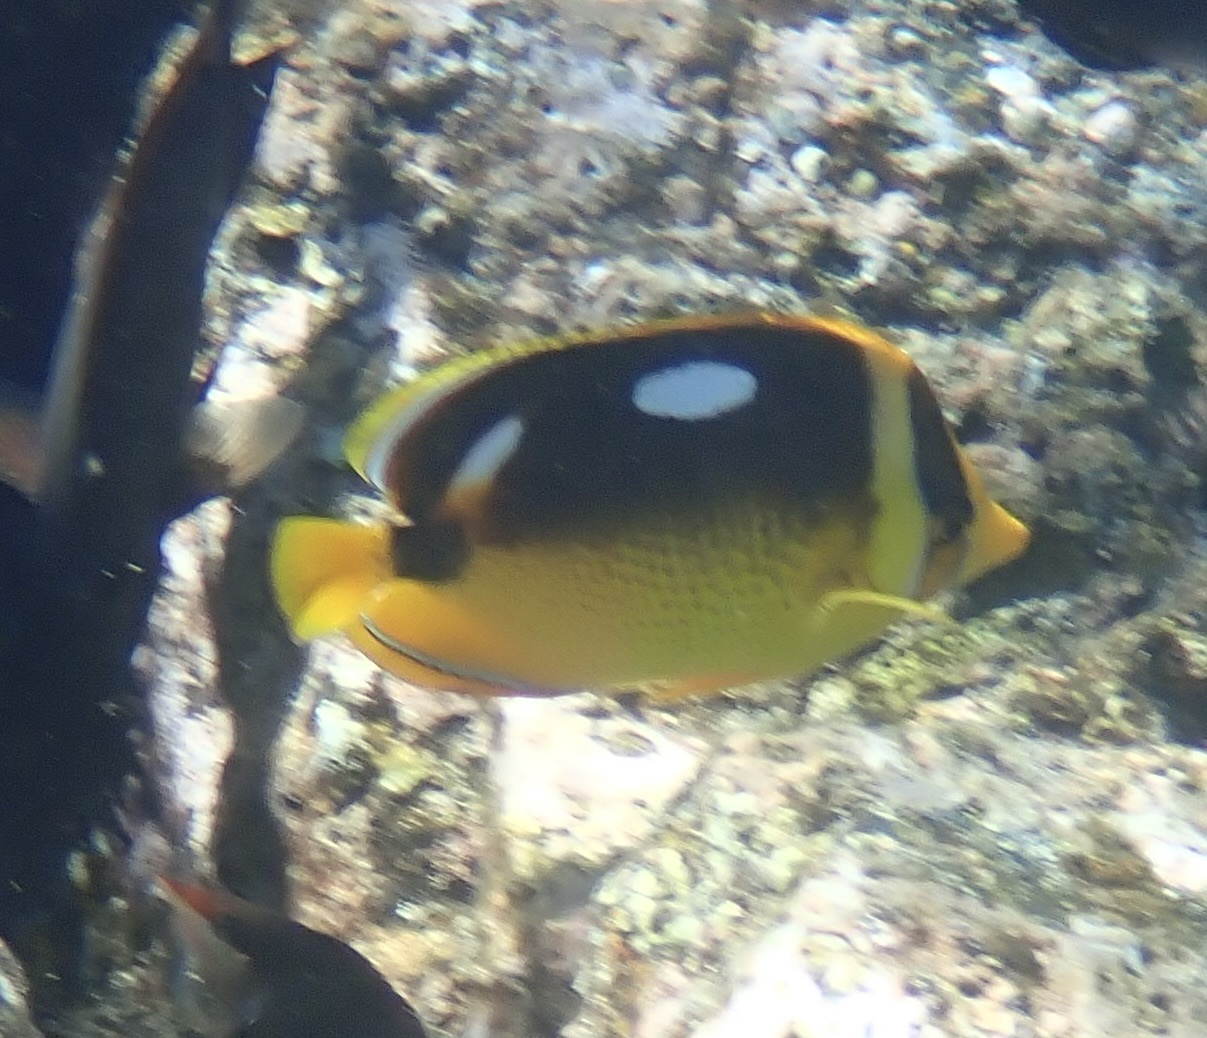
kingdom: Animalia
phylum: Chordata
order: Perciformes
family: Chaetodontidae
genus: Chaetodon
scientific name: Chaetodon quadrimaculatus
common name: Fourspot butterflyfish
